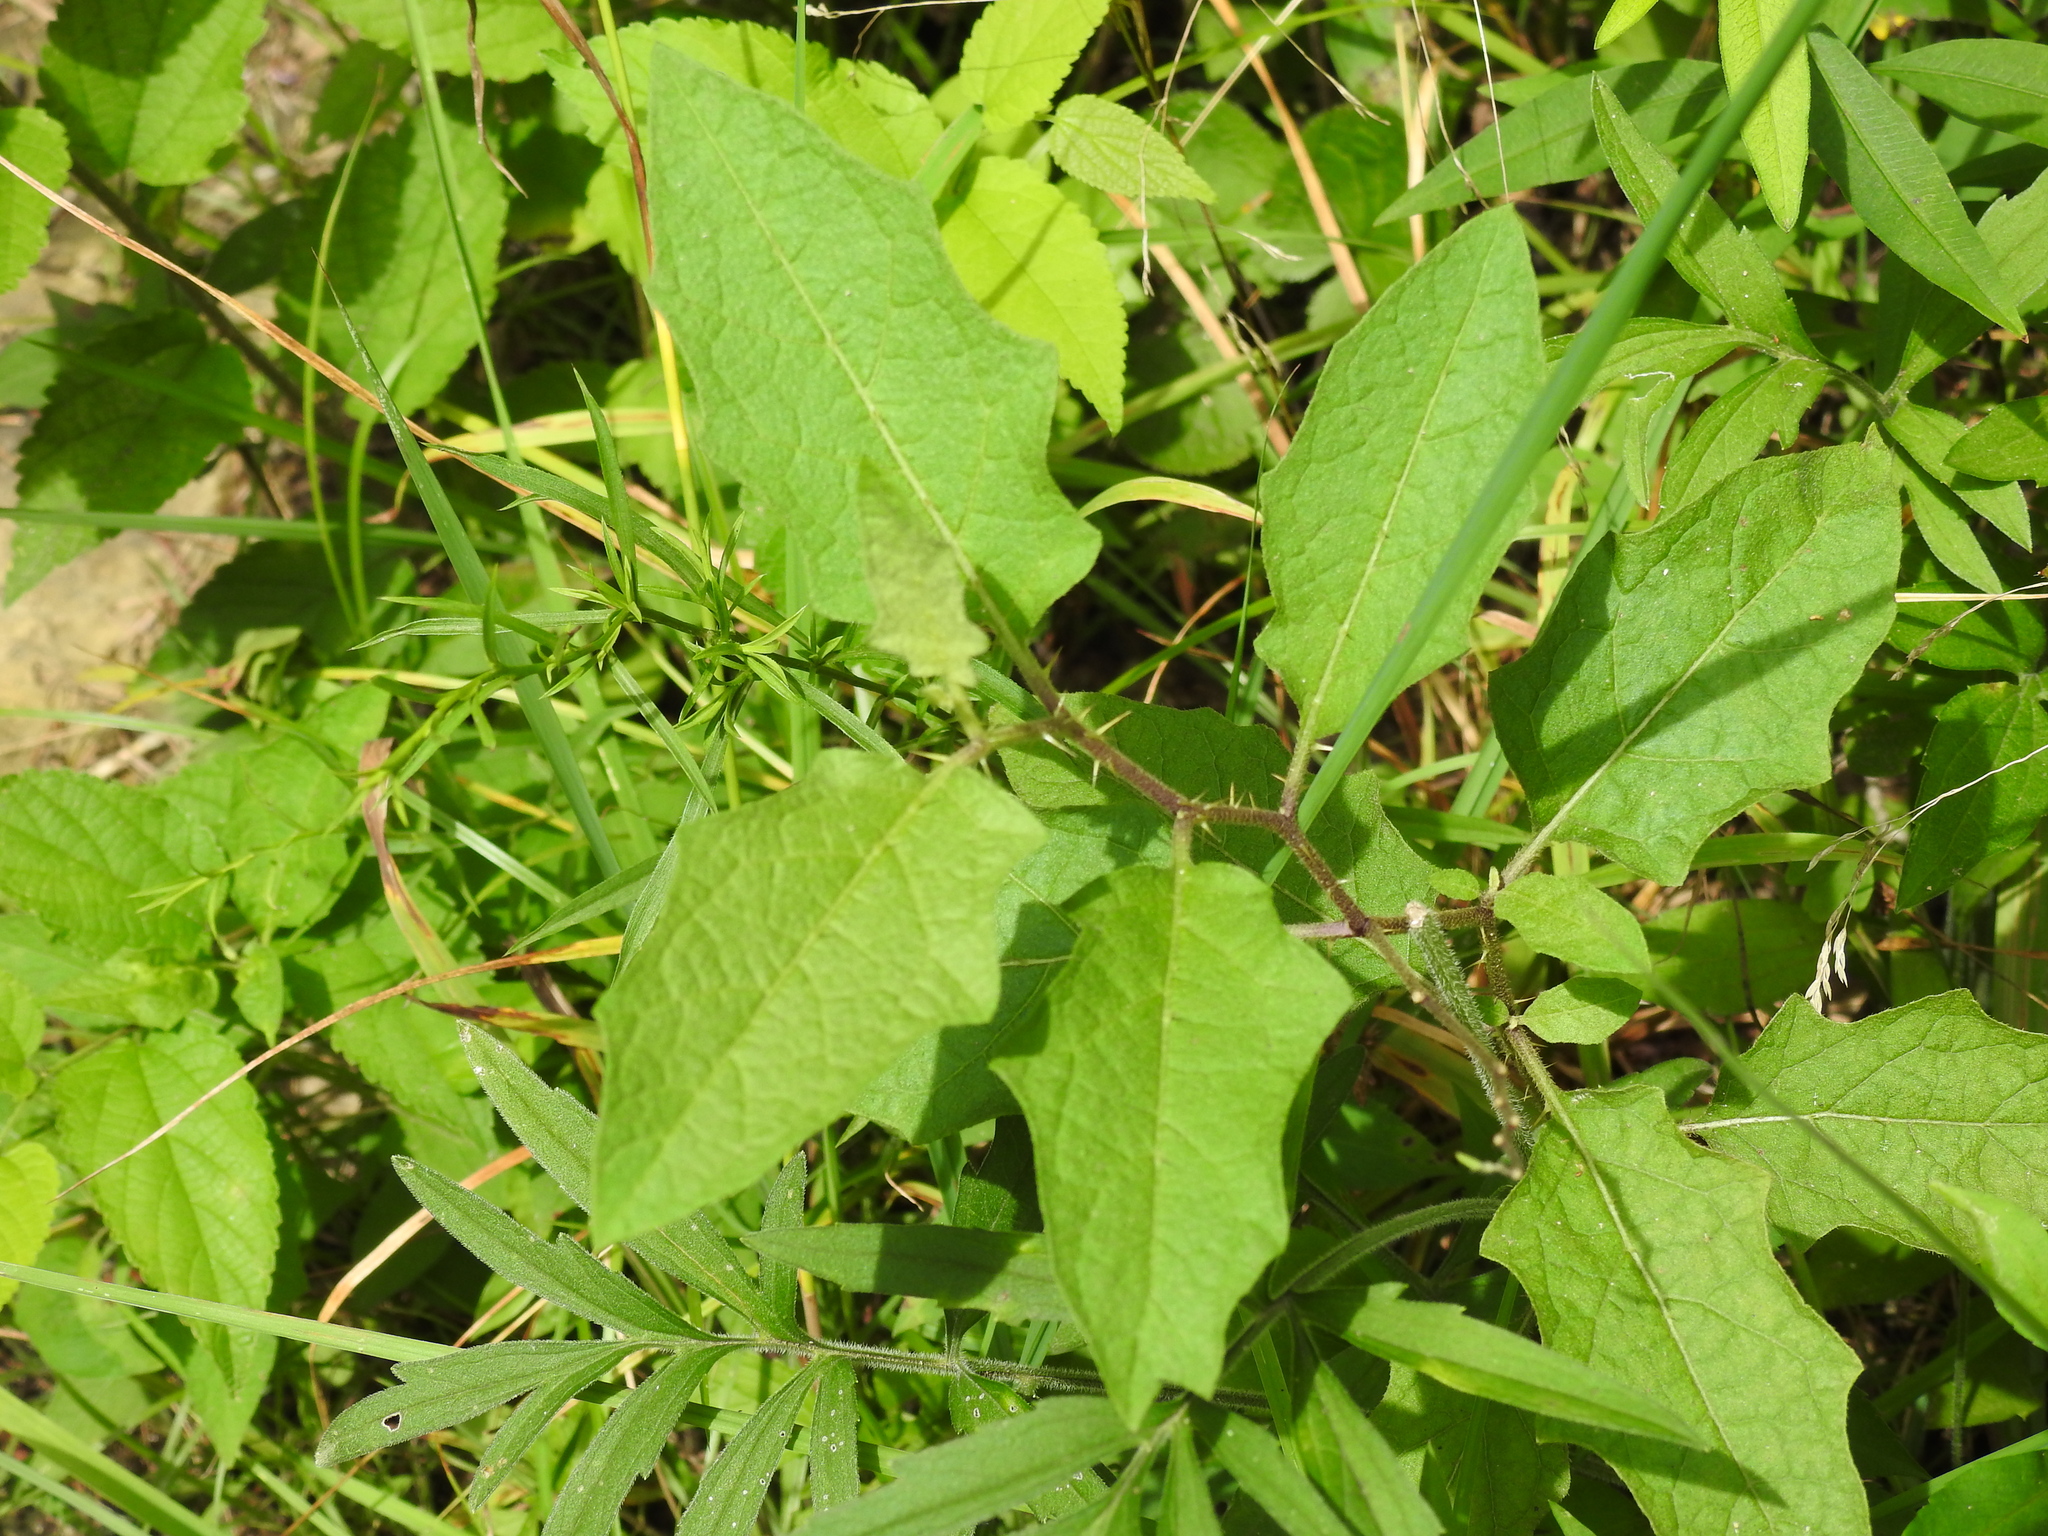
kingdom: Plantae
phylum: Tracheophyta
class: Magnoliopsida
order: Solanales
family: Solanaceae
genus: Solanum
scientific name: Solanum carolinense
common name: Horse-nettle
